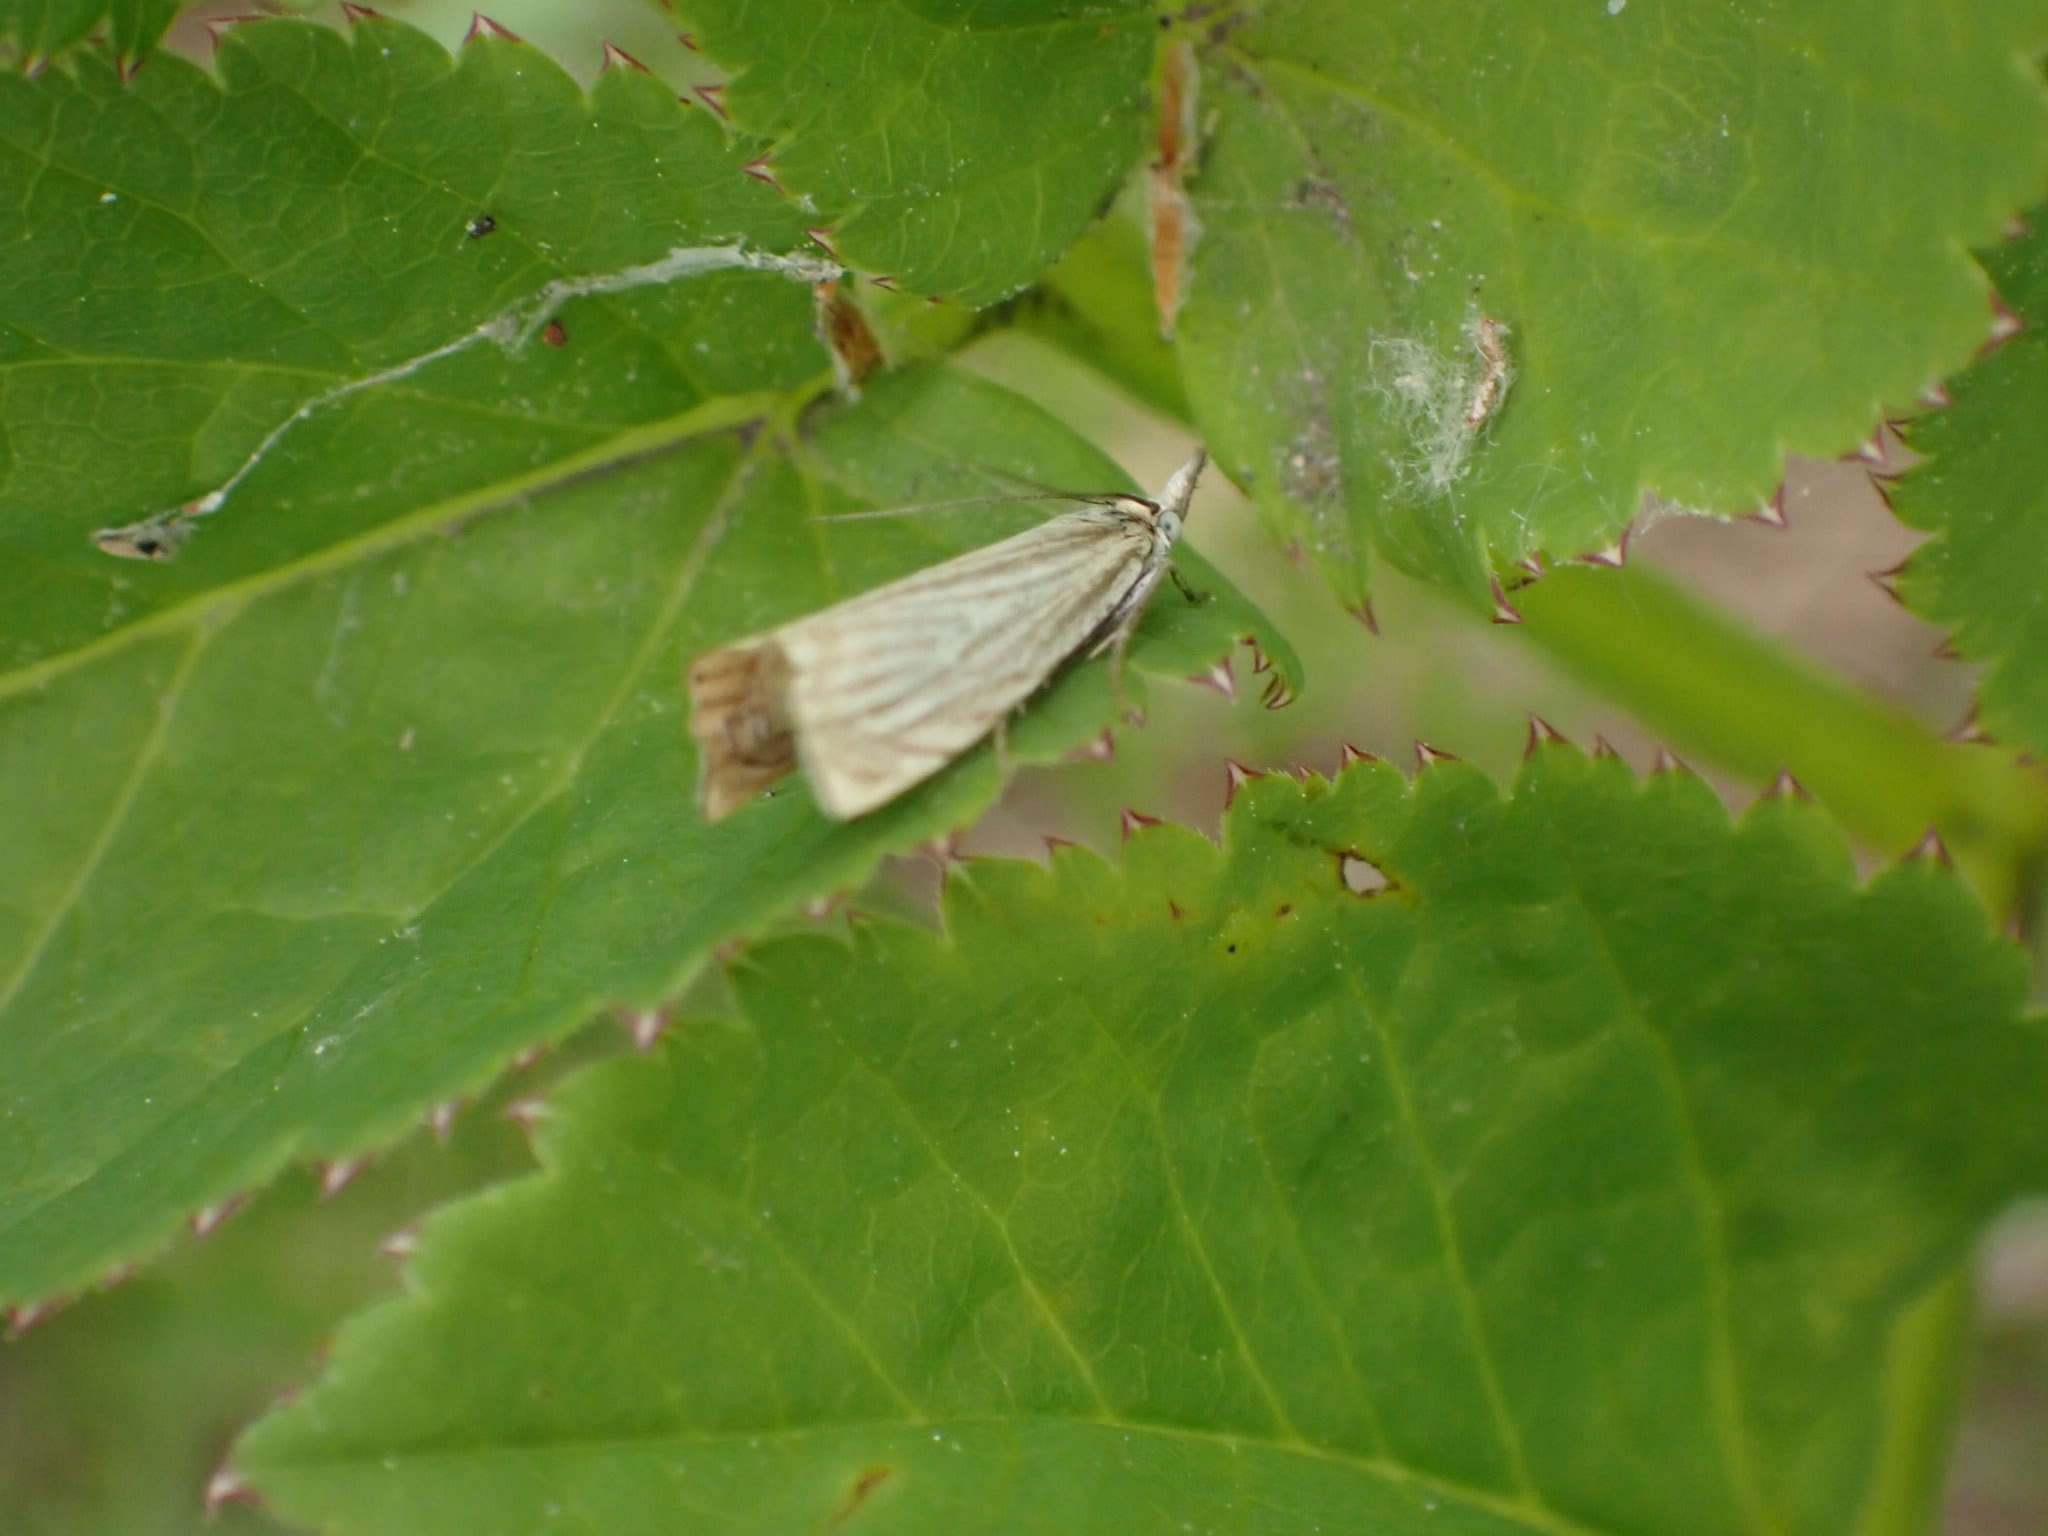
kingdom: Animalia
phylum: Arthropoda
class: Insecta
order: Lepidoptera
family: Crambidae
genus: Chrysoteuchia
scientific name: Chrysoteuchia culmella
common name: Garden grass-veneer
